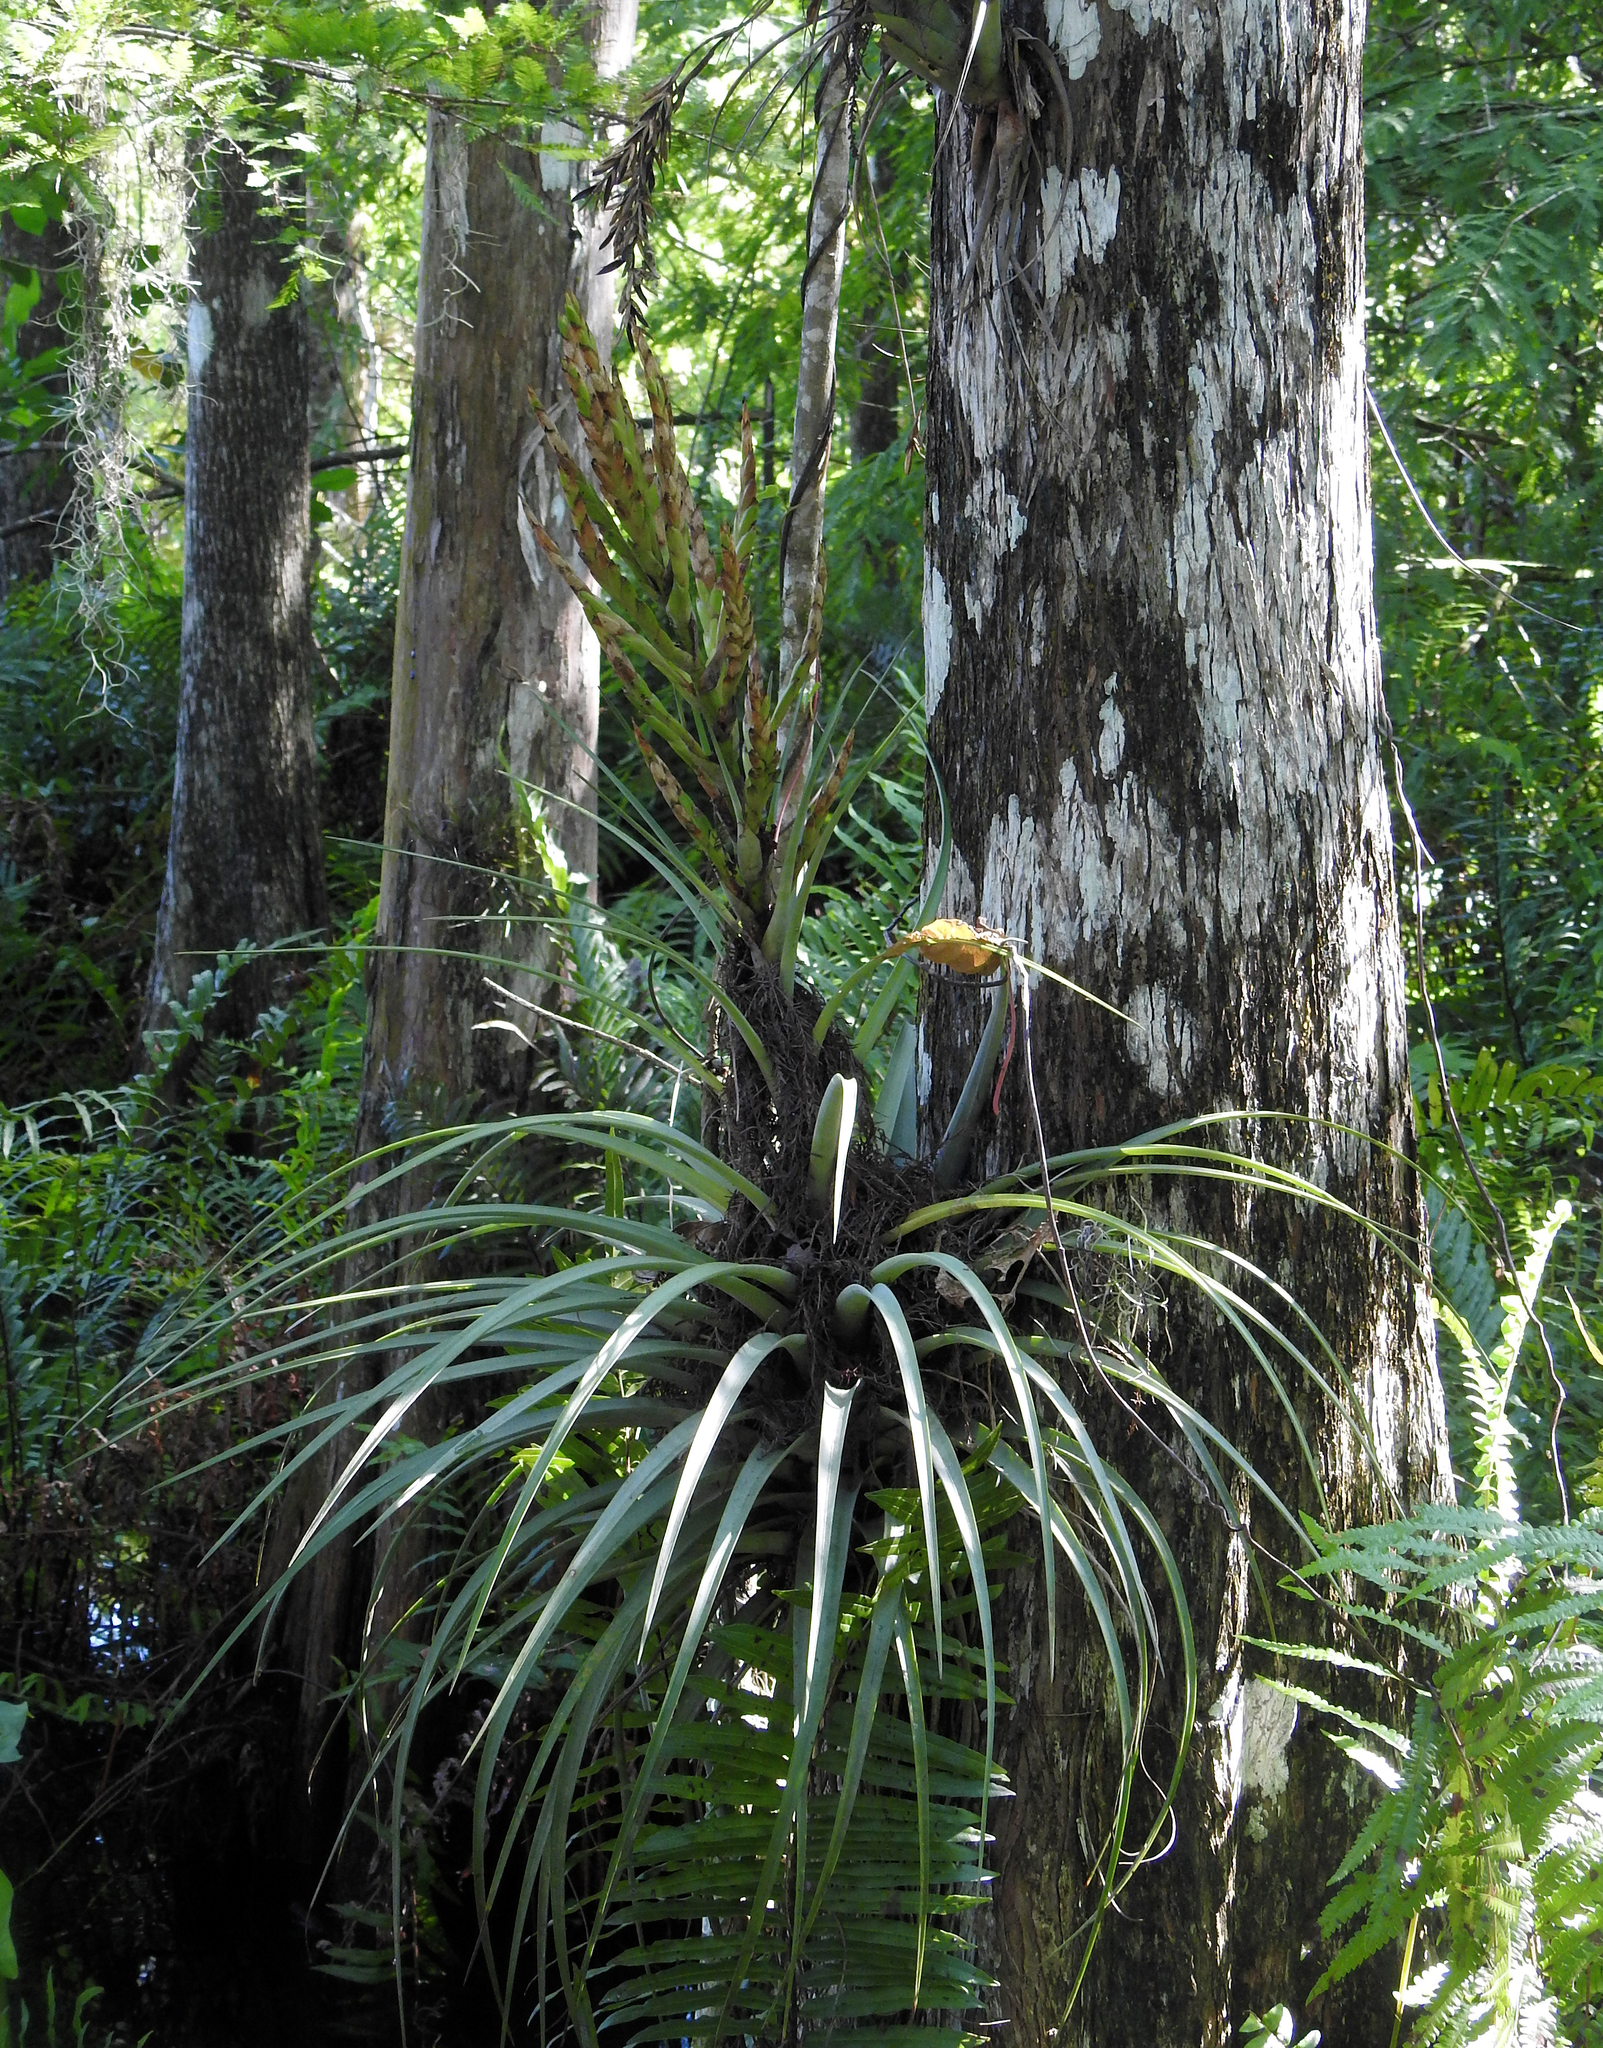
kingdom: Plantae
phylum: Tracheophyta
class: Liliopsida
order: Poales
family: Bromeliaceae
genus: Tillandsia
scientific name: Tillandsia fasciculata
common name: Giant airplant
